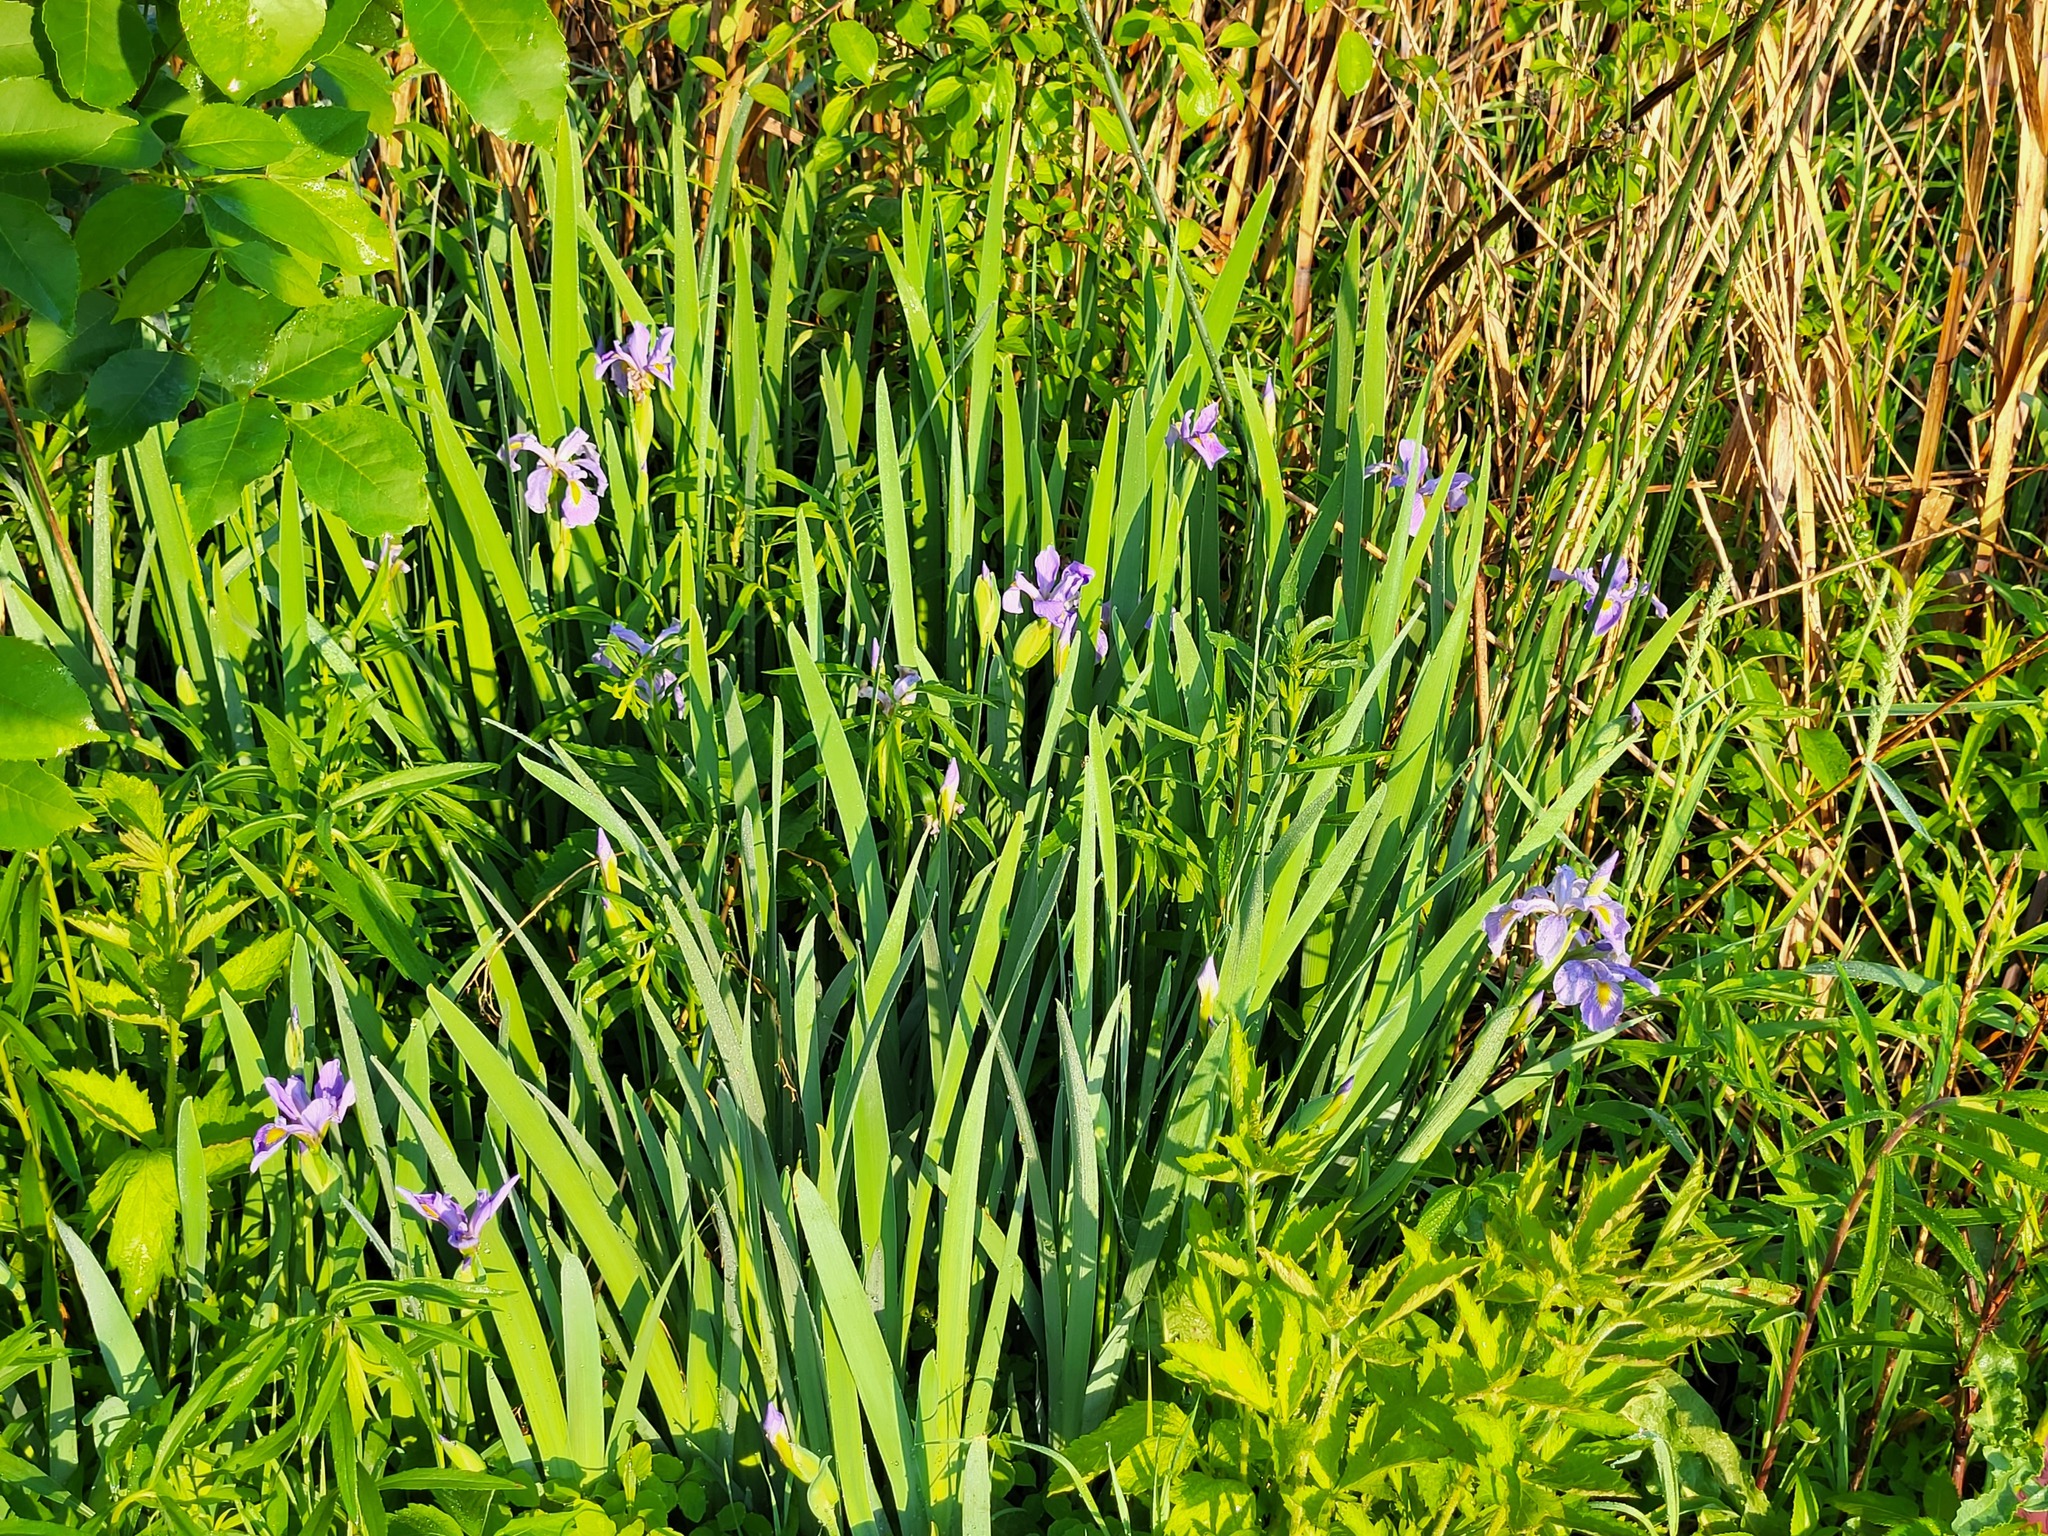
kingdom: Plantae
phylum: Tracheophyta
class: Liliopsida
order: Asparagales
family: Iridaceae
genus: Iris
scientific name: Iris virginica
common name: Southern blue flag
